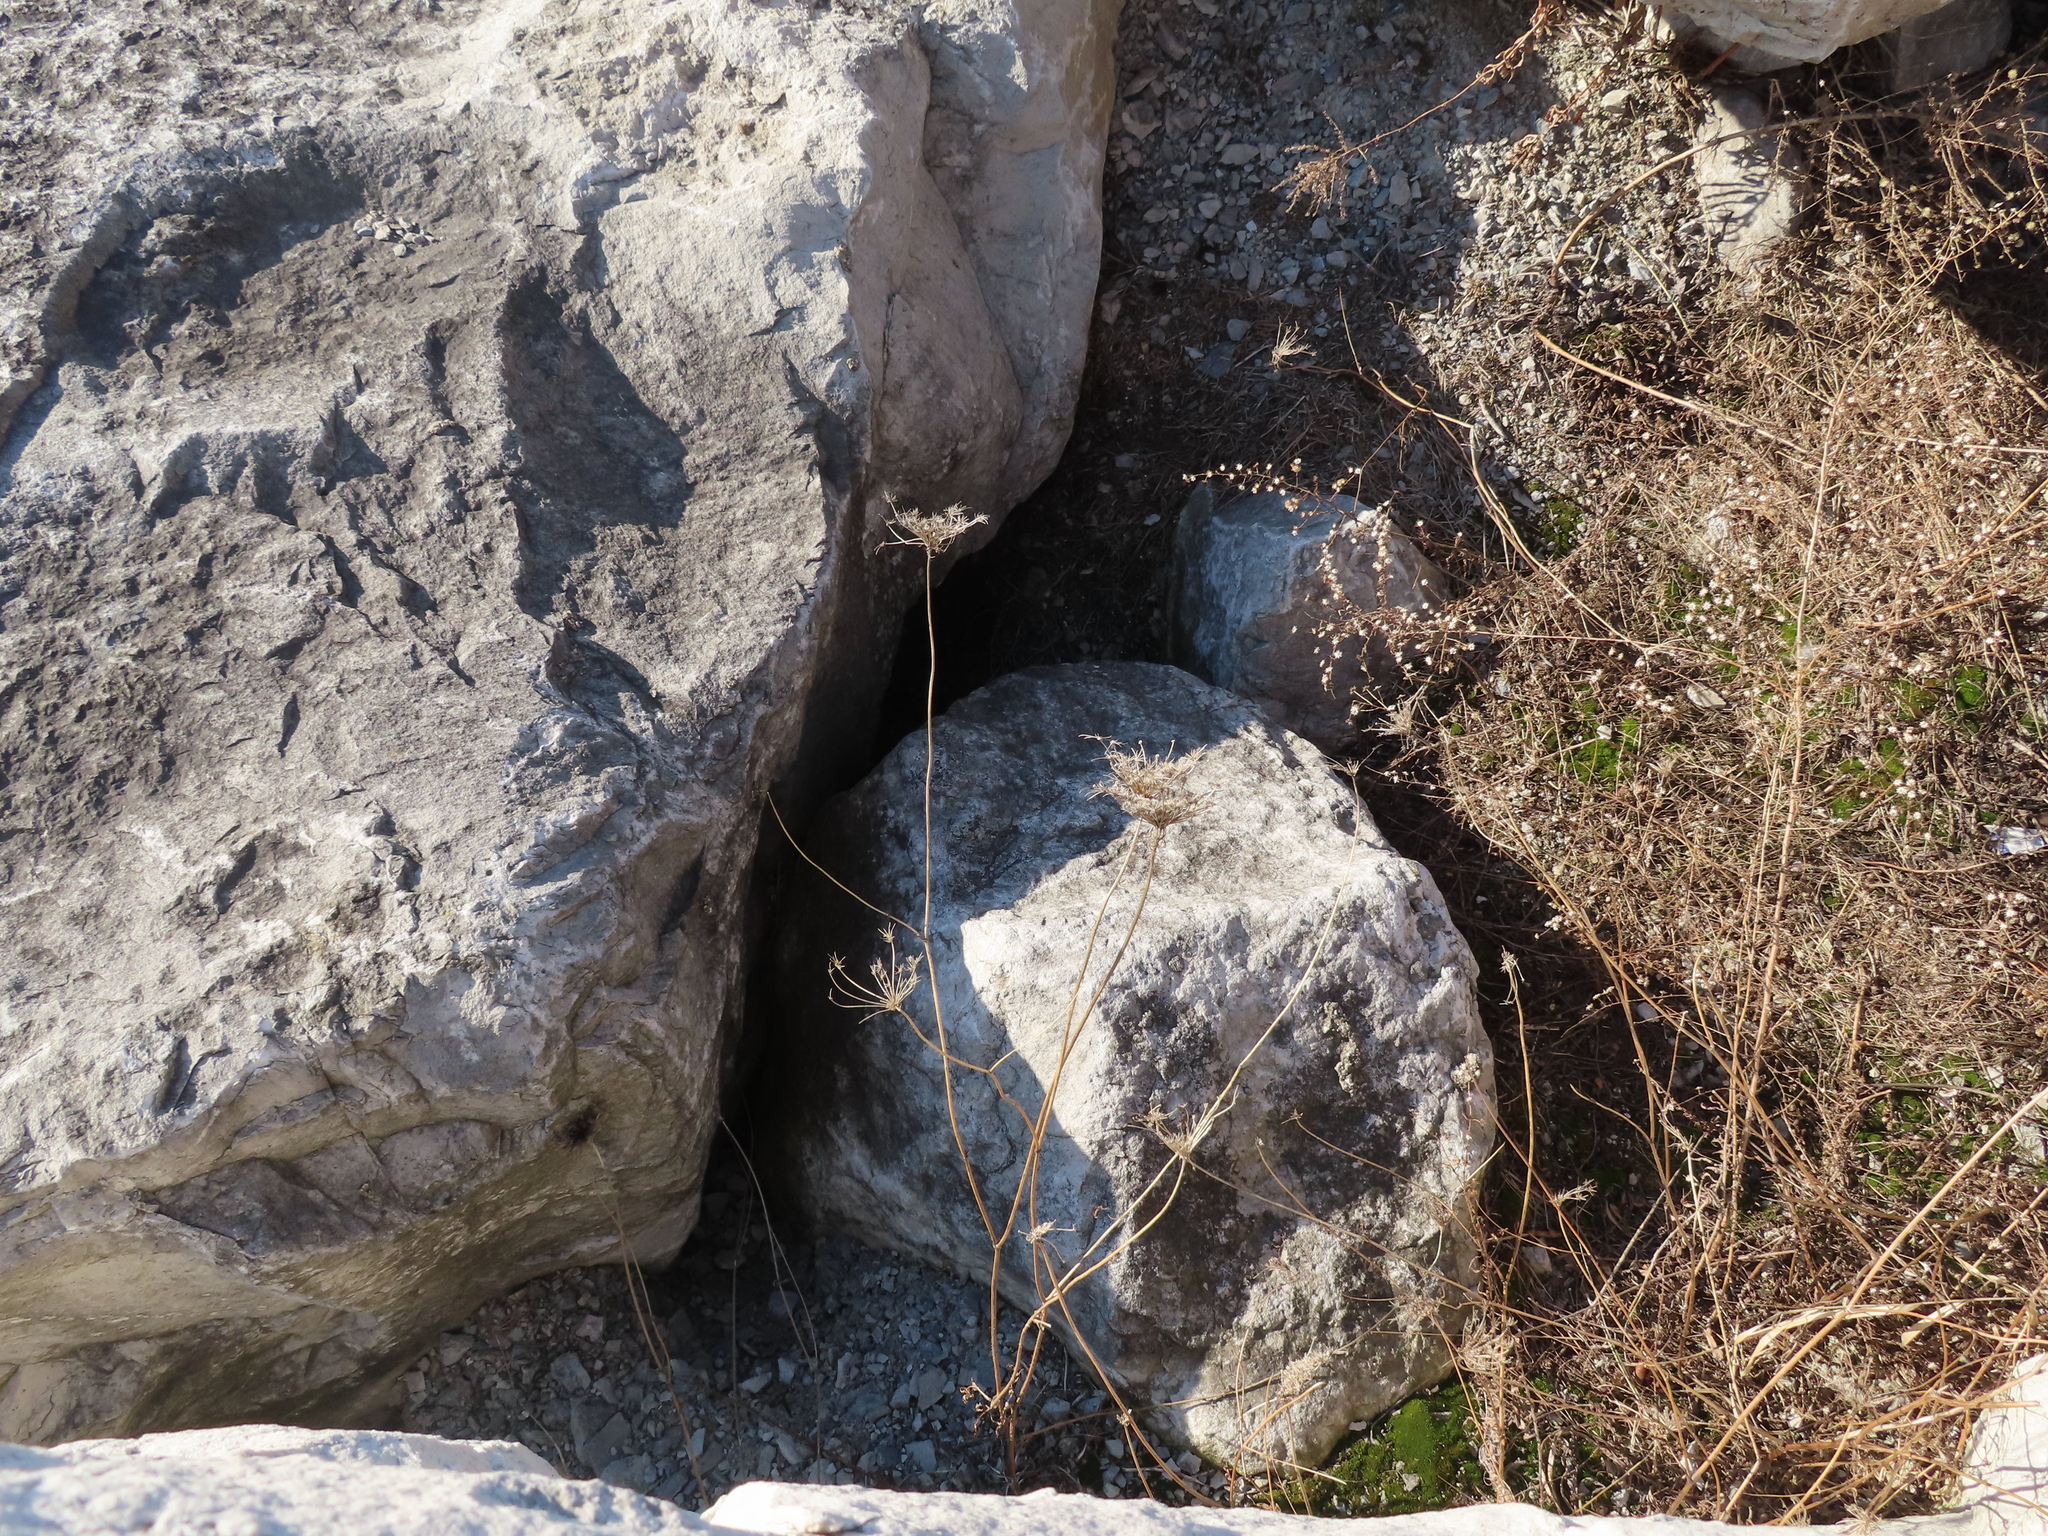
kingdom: Plantae
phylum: Tracheophyta
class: Magnoliopsida
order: Apiales
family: Apiaceae
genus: Daucus
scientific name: Daucus carota
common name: Wild carrot
